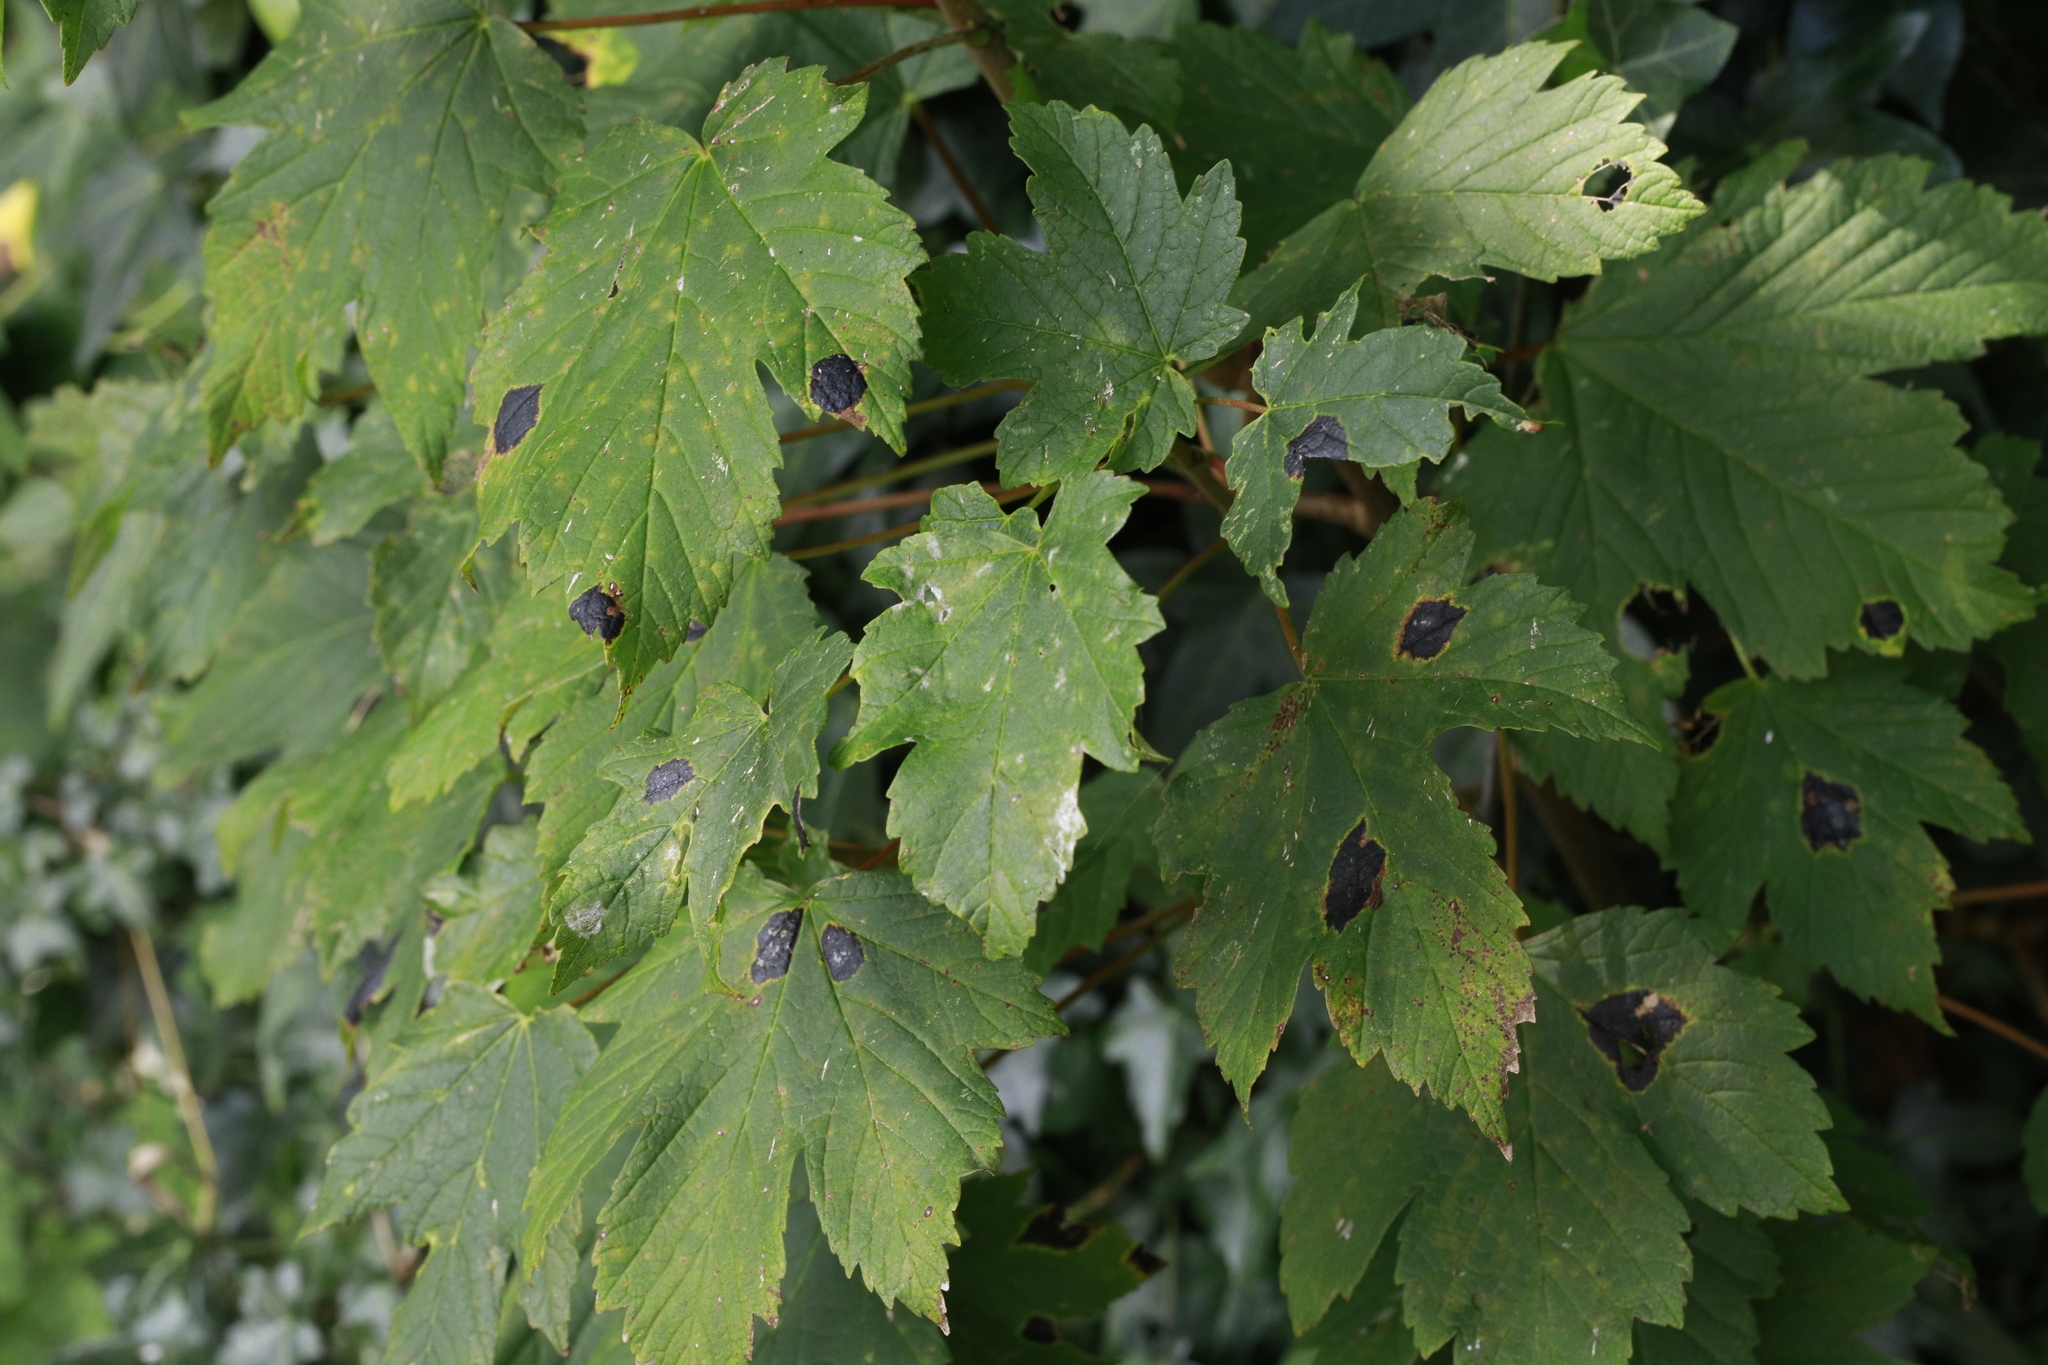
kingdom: Plantae
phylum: Tracheophyta
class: Magnoliopsida
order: Sapindales
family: Sapindaceae
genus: Acer
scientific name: Acer pseudoplatanus
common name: Sycamore
